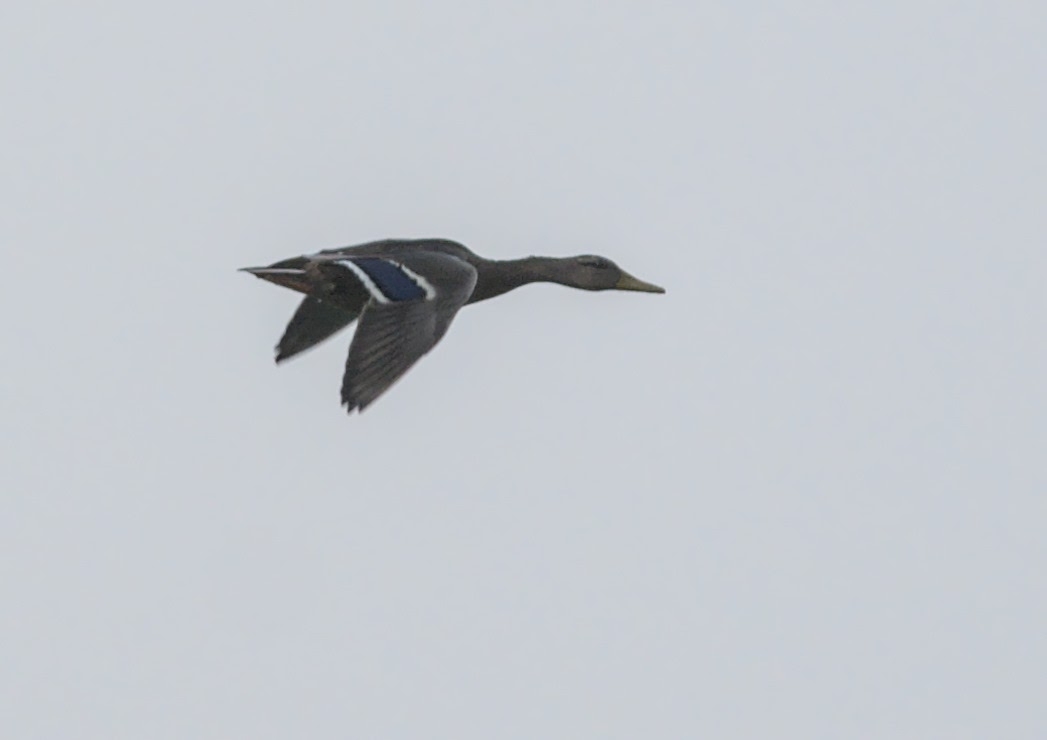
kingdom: Animalia
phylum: Chordata
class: Aves
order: Anseriformes
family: Anatidae
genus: Anas
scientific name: Anas platyrhynchos
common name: Mallard
